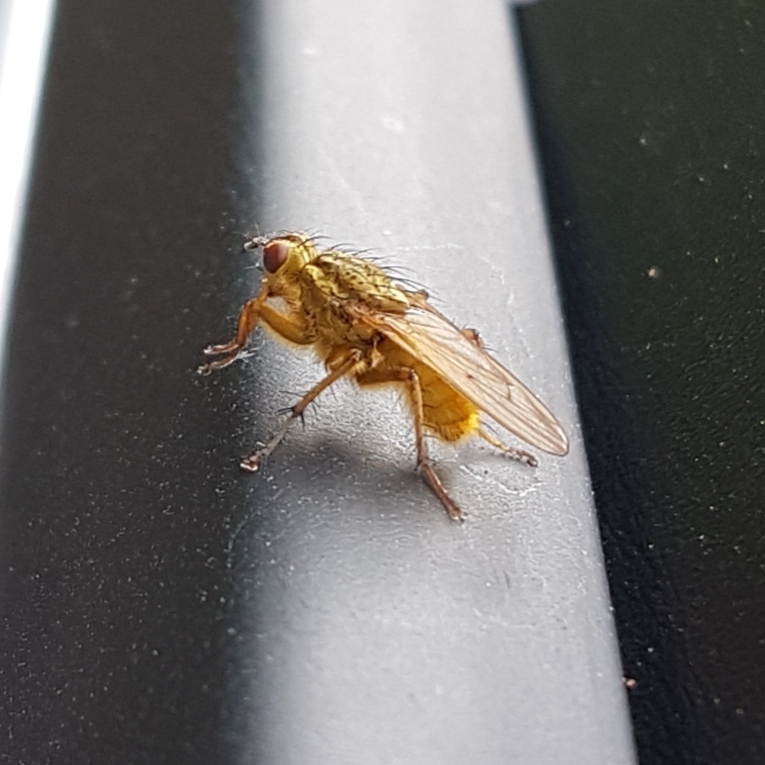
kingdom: Animalia
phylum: Arthropoda
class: Insecta
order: Diptera
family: Scathophagidae
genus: Scathophaga
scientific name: Scathophaga stercoraria
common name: Yellow dung fly
